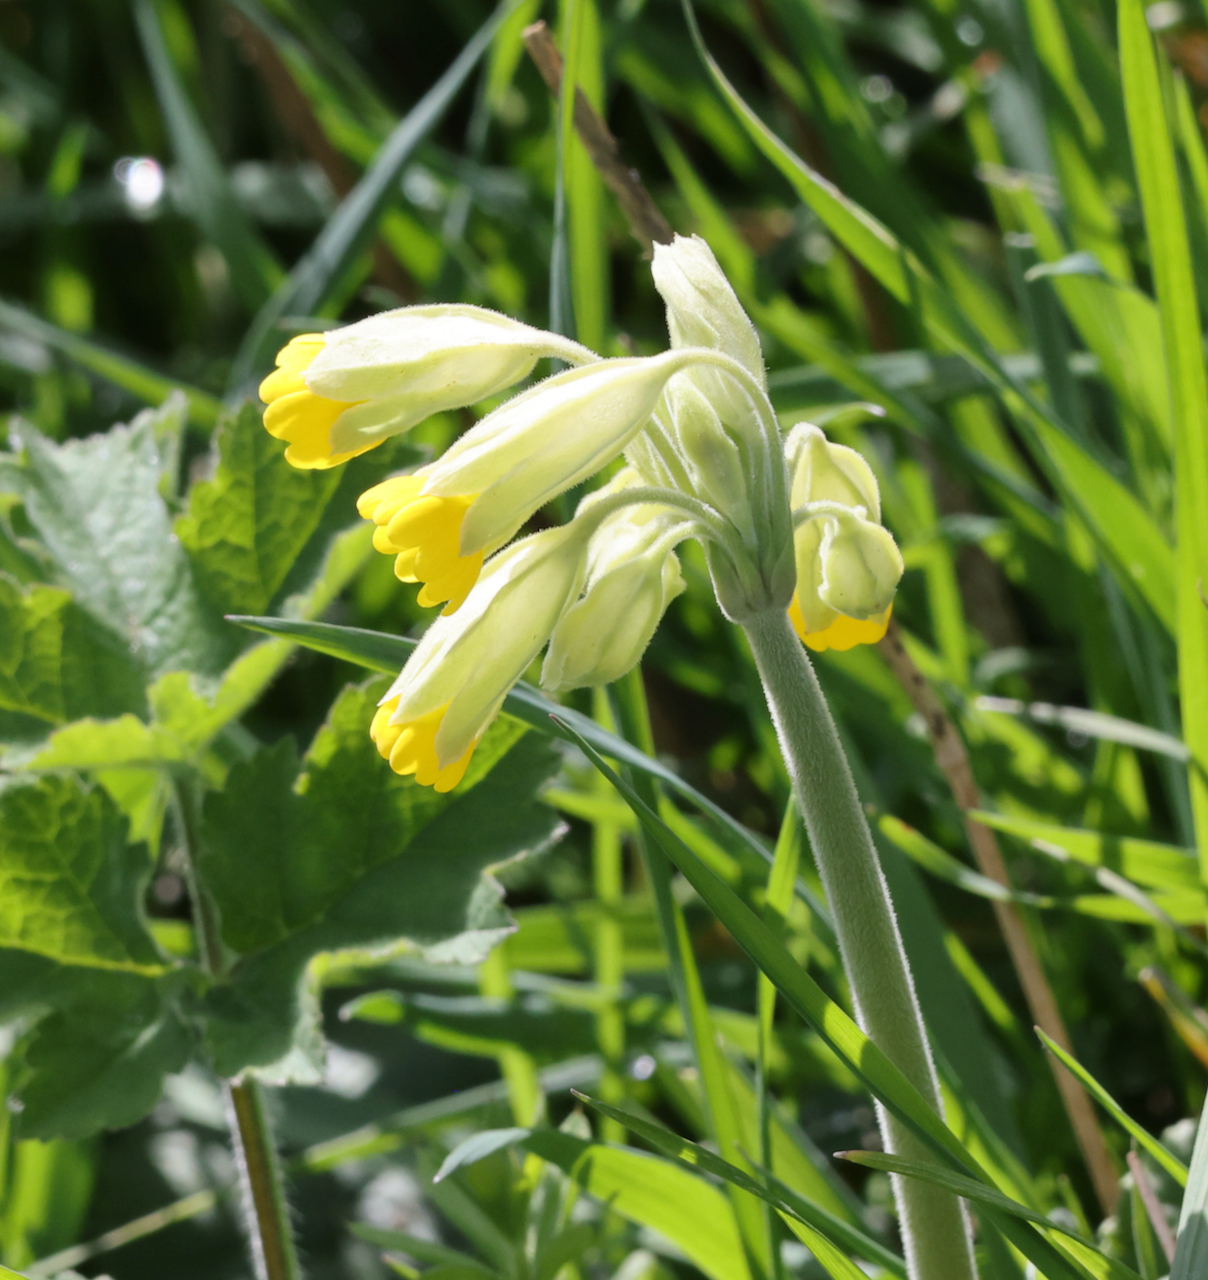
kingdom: Plantae
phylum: Tracheophyta
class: Magnoliopsida
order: Ericales
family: Primulaceae
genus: Primula
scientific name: Primula veris
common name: Cowslip
